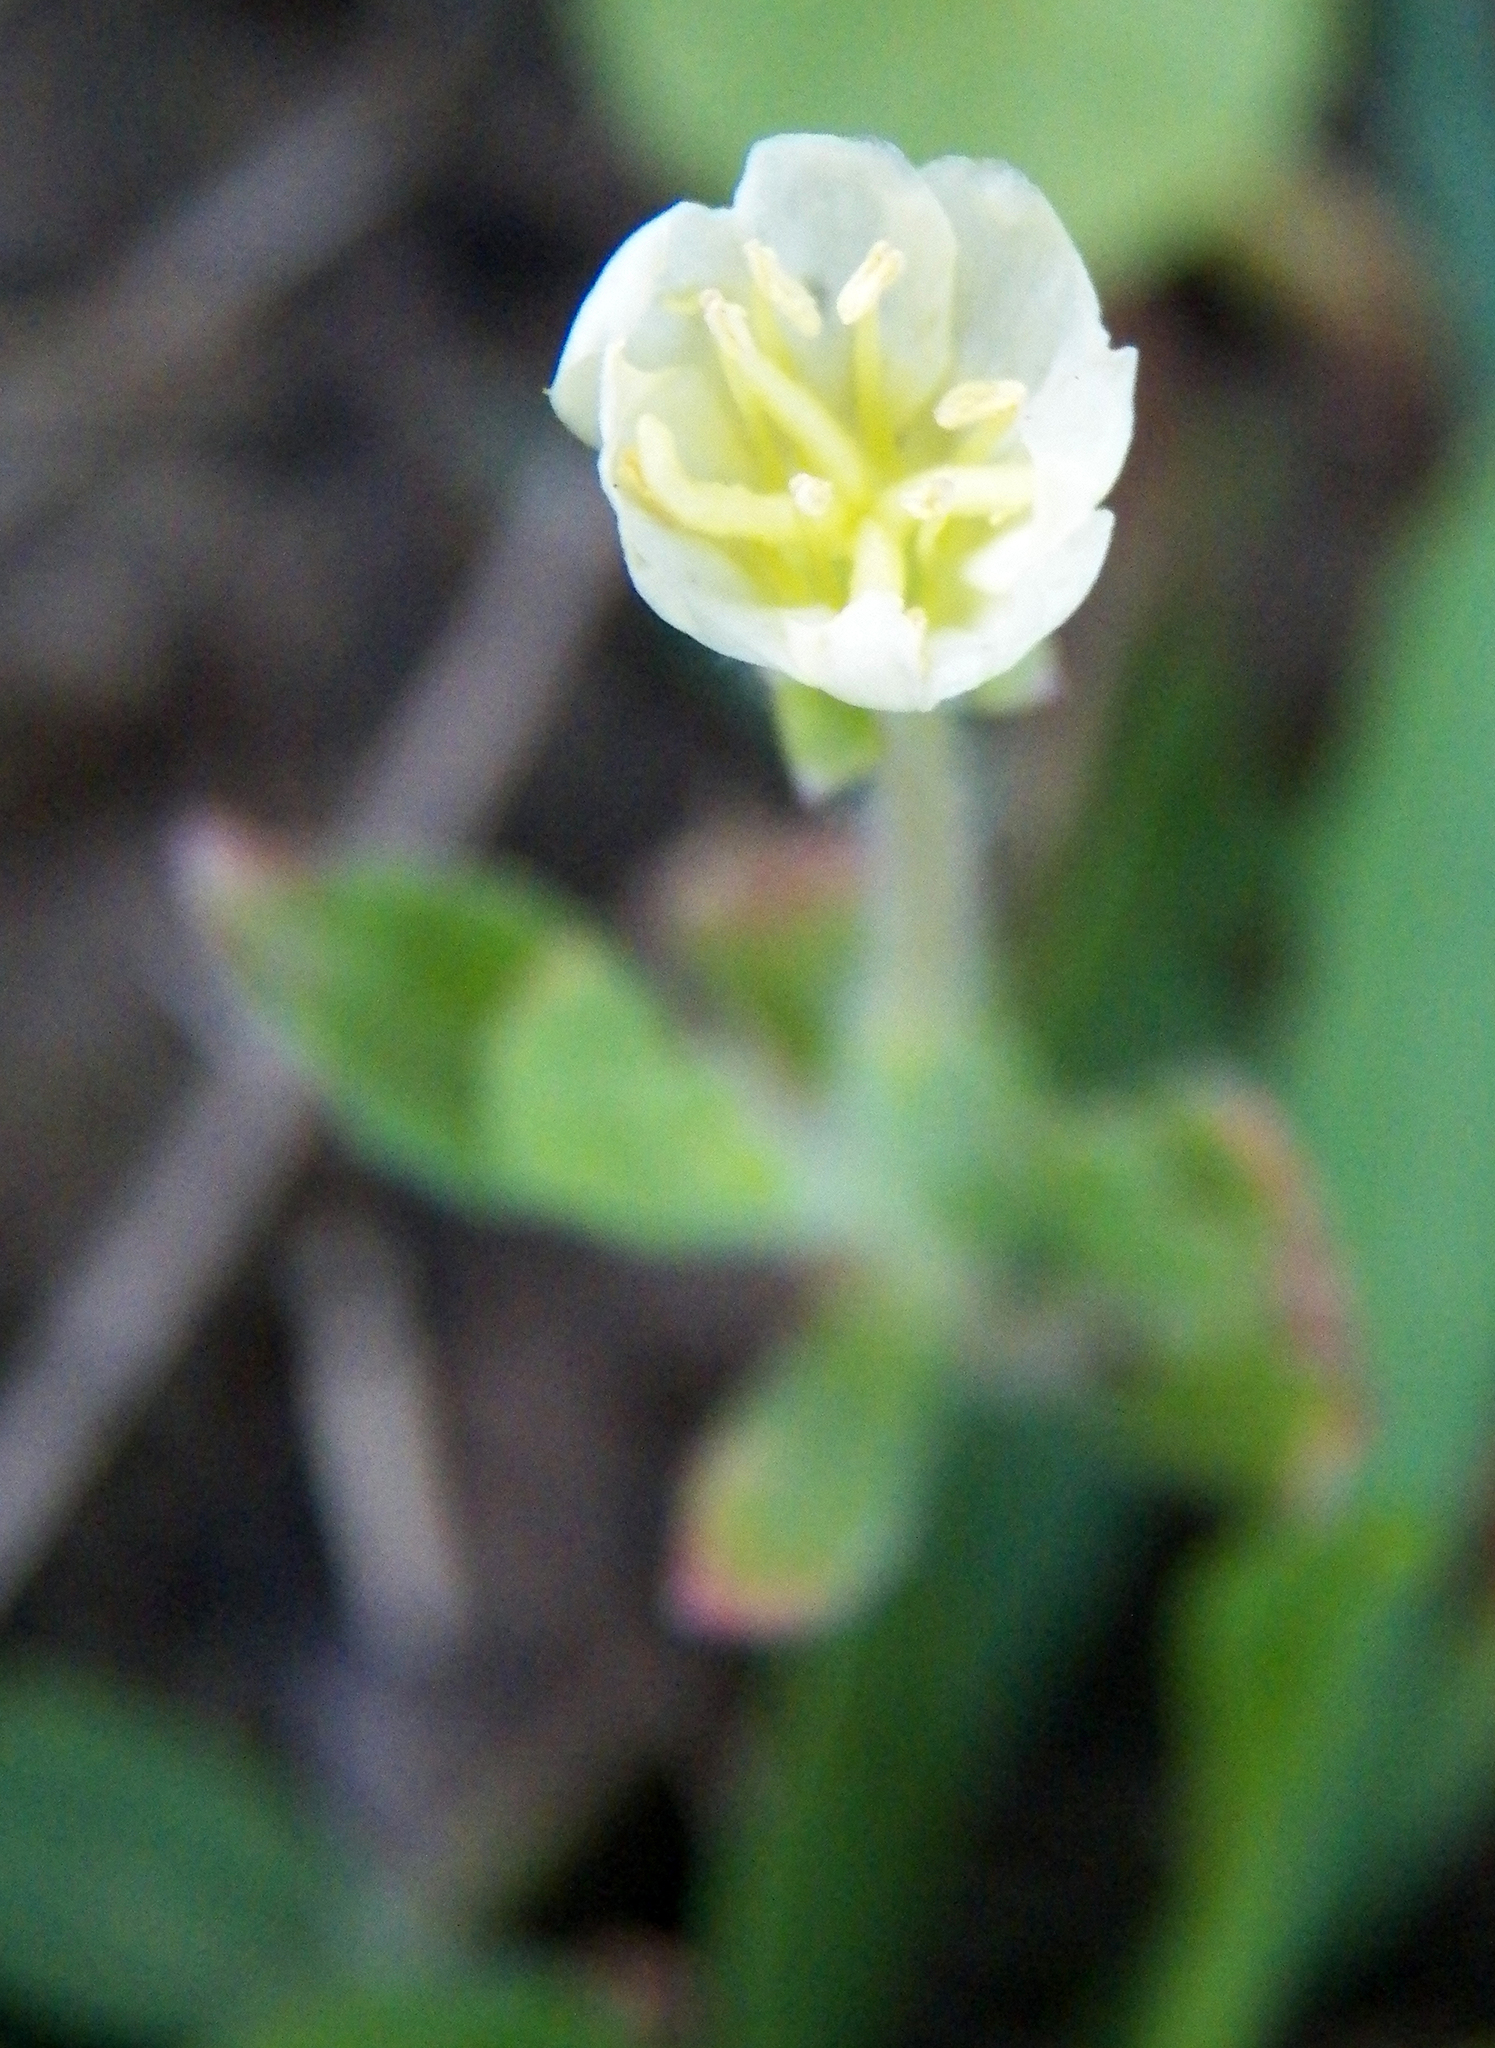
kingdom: Plantae
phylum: Tracheophyta
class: Magnoliopsida
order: Myrtales
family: Onagraceae
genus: Oenothera
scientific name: Oenothera laciniata
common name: Cut-leaved evening-primrose
